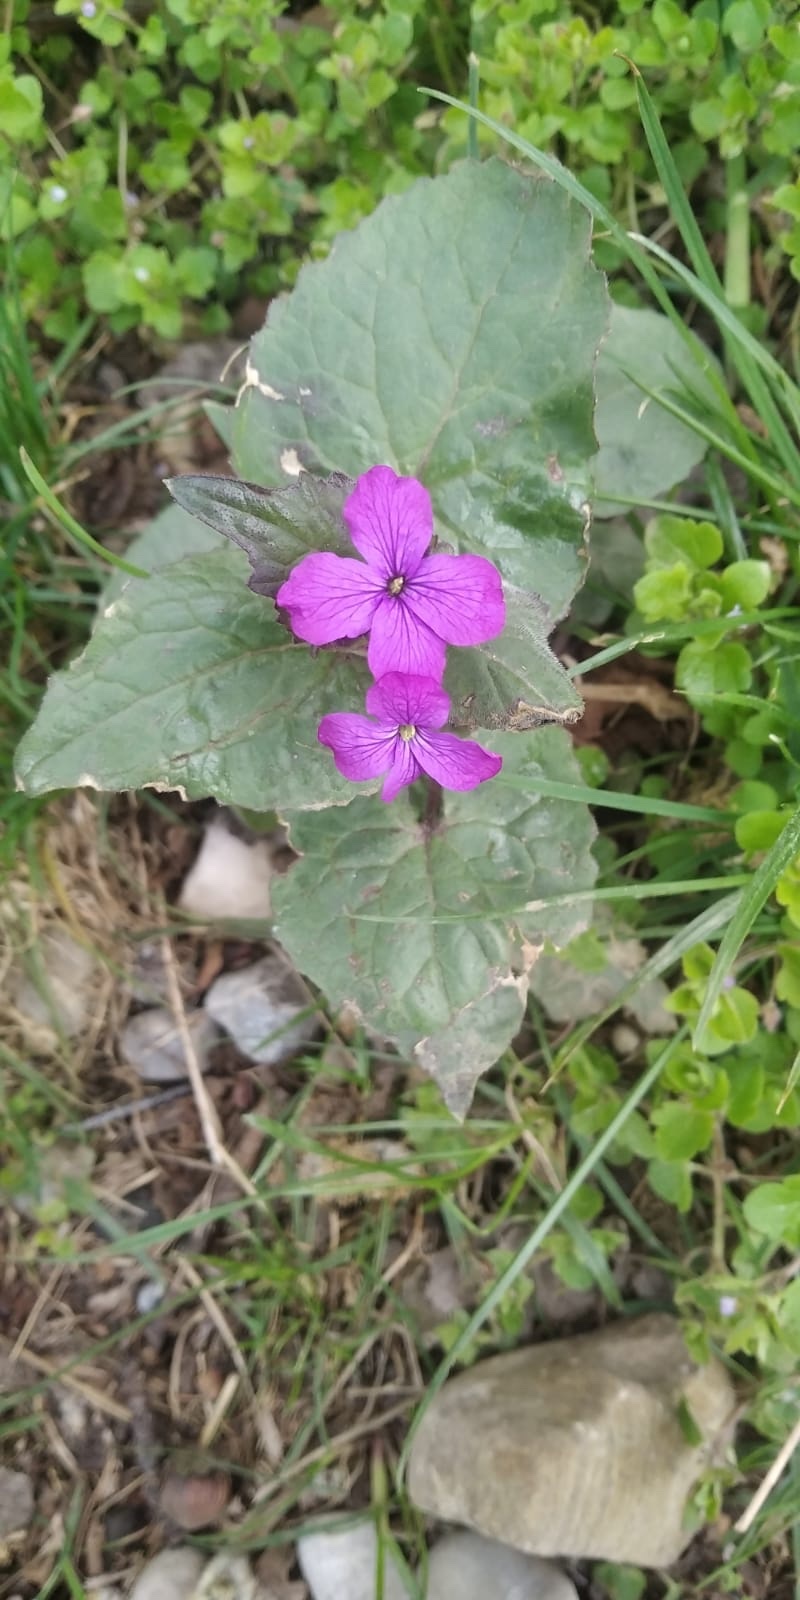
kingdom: Plantae
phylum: Tracheophyta
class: Magnoliopsida
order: Brassicales
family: Brassicaceae
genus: Lunaria
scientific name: Lunaria annua
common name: Honesty
